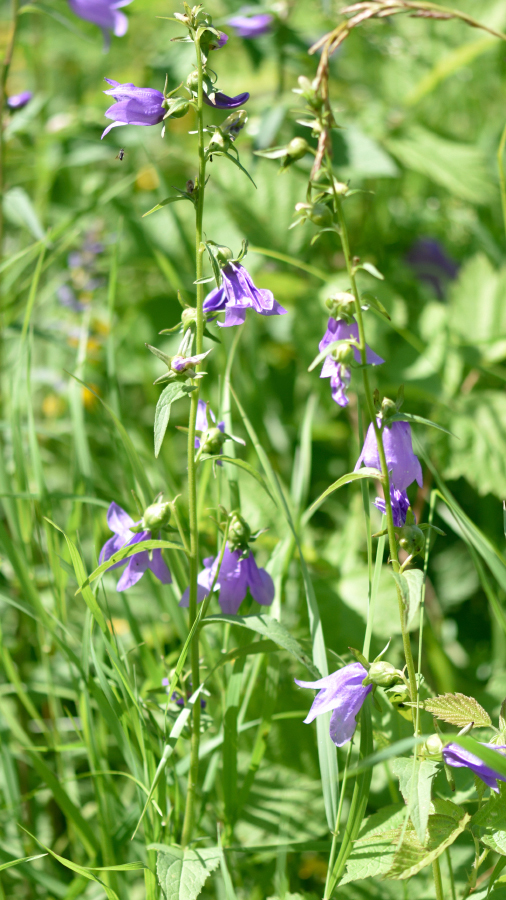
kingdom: Plantae
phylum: Tracheophyta
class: Magnoliopsida
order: Asterales
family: Campanulaceae
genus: Campanula
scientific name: Campanula rapunculoides
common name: Creeping bellflower
